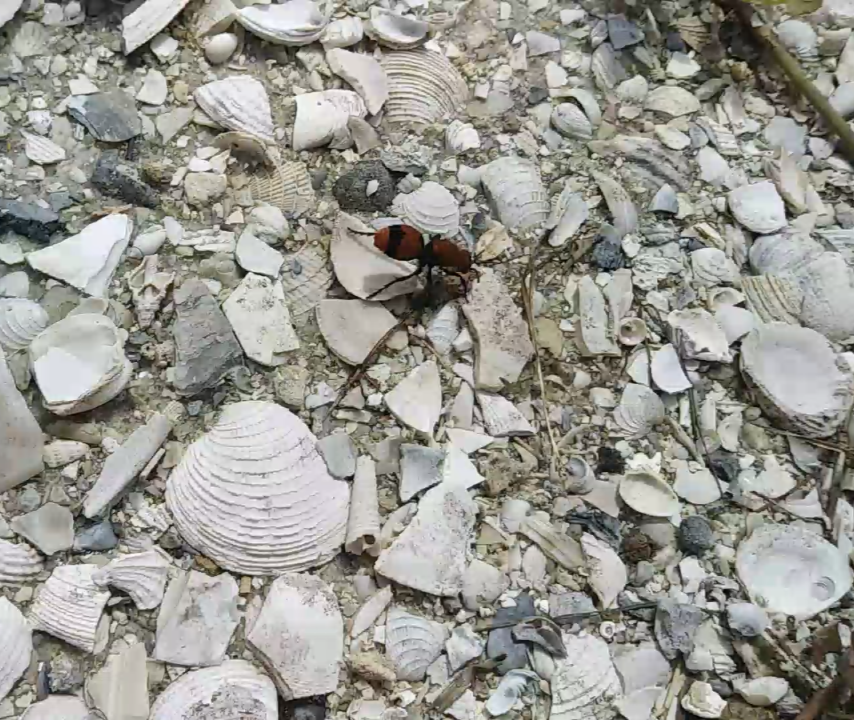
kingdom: Animalia
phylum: Arthropoda
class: Insecta
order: Hymenoptera
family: Mutillidae
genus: Dasymutilla
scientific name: Dasymutilla occidentalis
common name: Common eastern velvet ant
